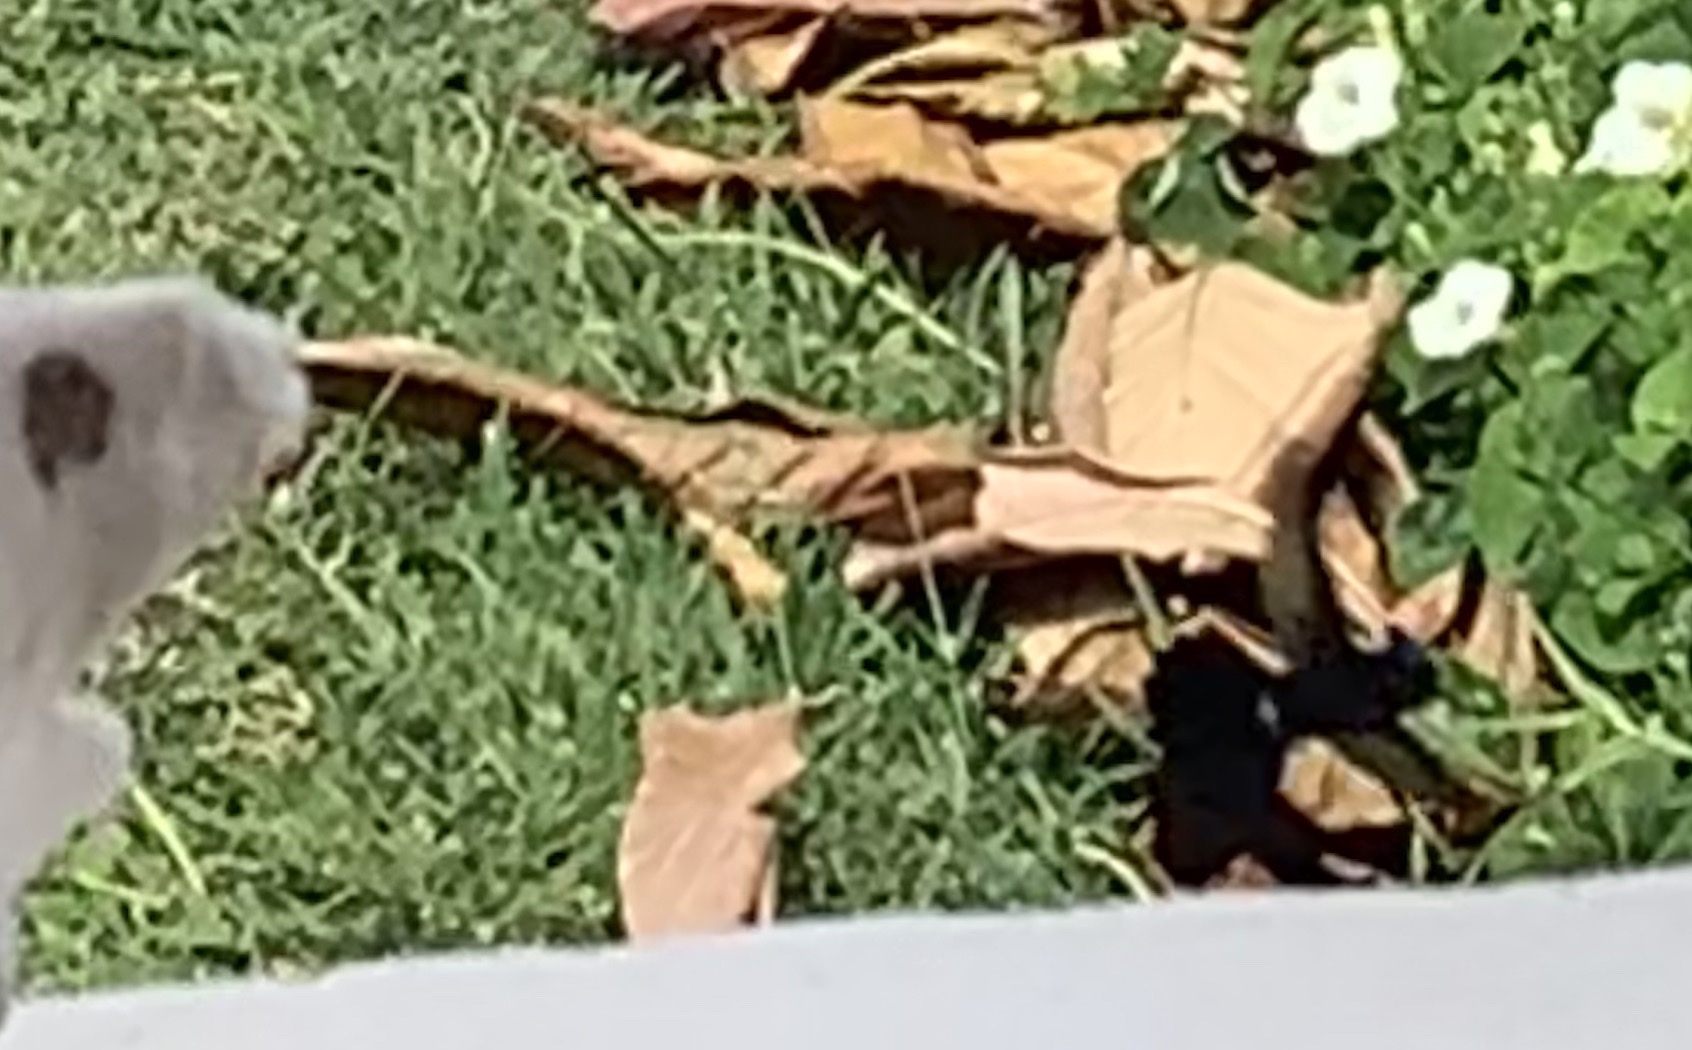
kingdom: Animalia
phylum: Chordata
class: Aves
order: Apodiformes
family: Trochilidae
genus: Orthorhyncus
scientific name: Orthorhyncus cristatus
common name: Antillean crested hummingbird
